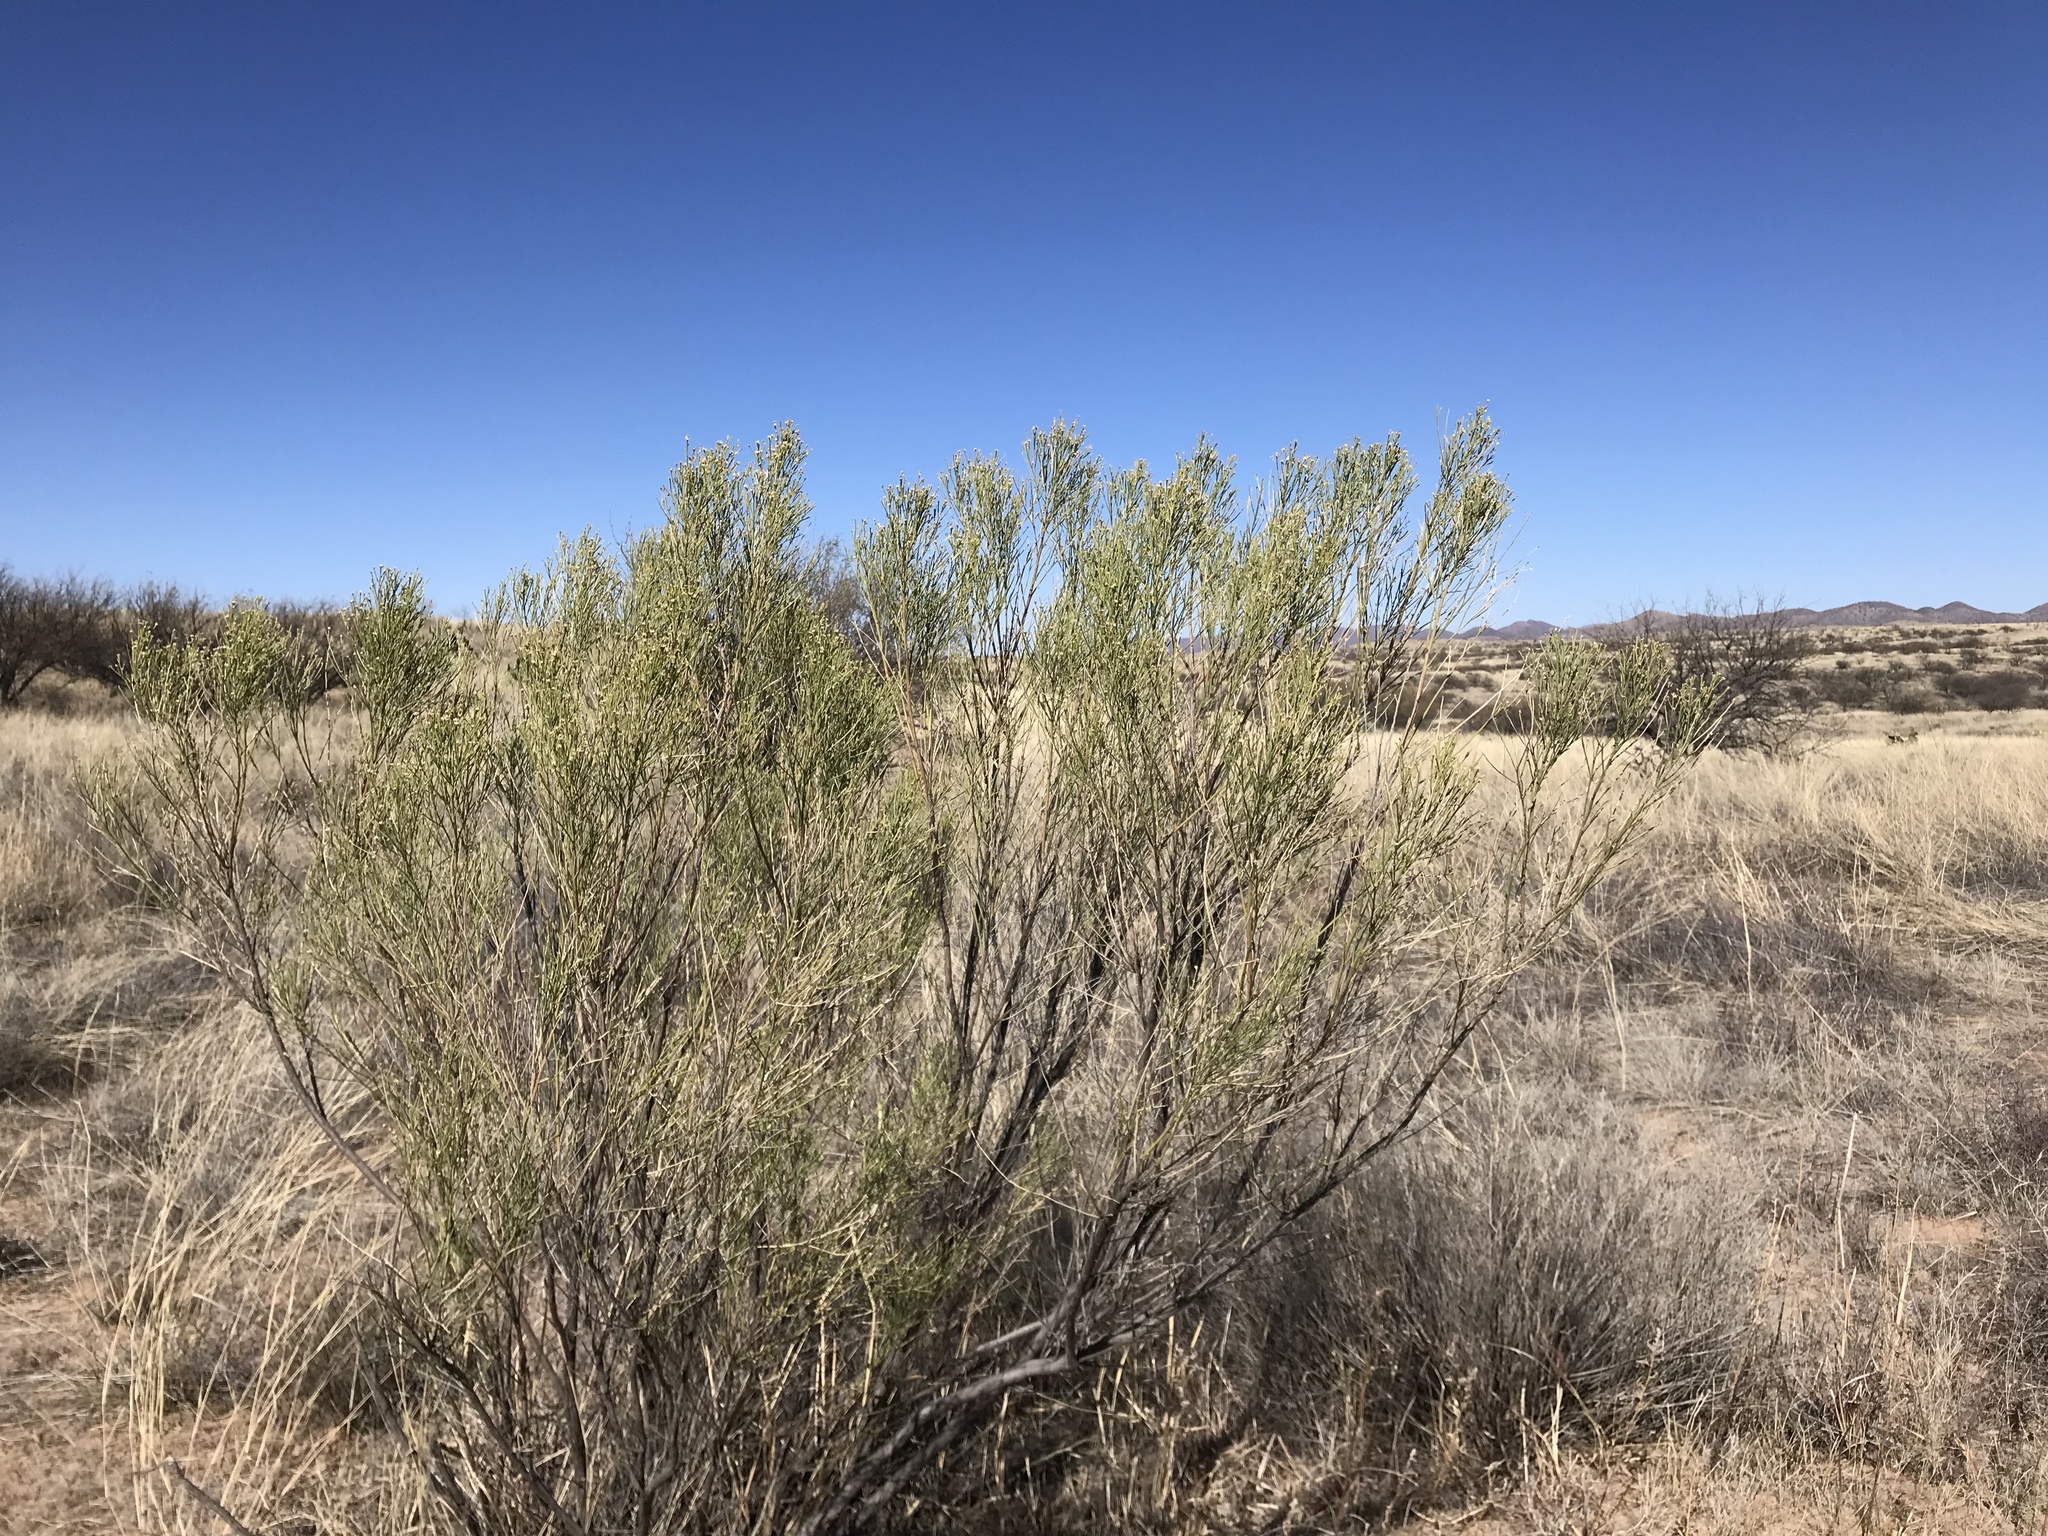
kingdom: Plantae
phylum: Tracheophyta
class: Magnoliopsida
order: Asterales
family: Asteraceae
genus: Baccharis
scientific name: Baccharis sarothroides
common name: Desert-broom
